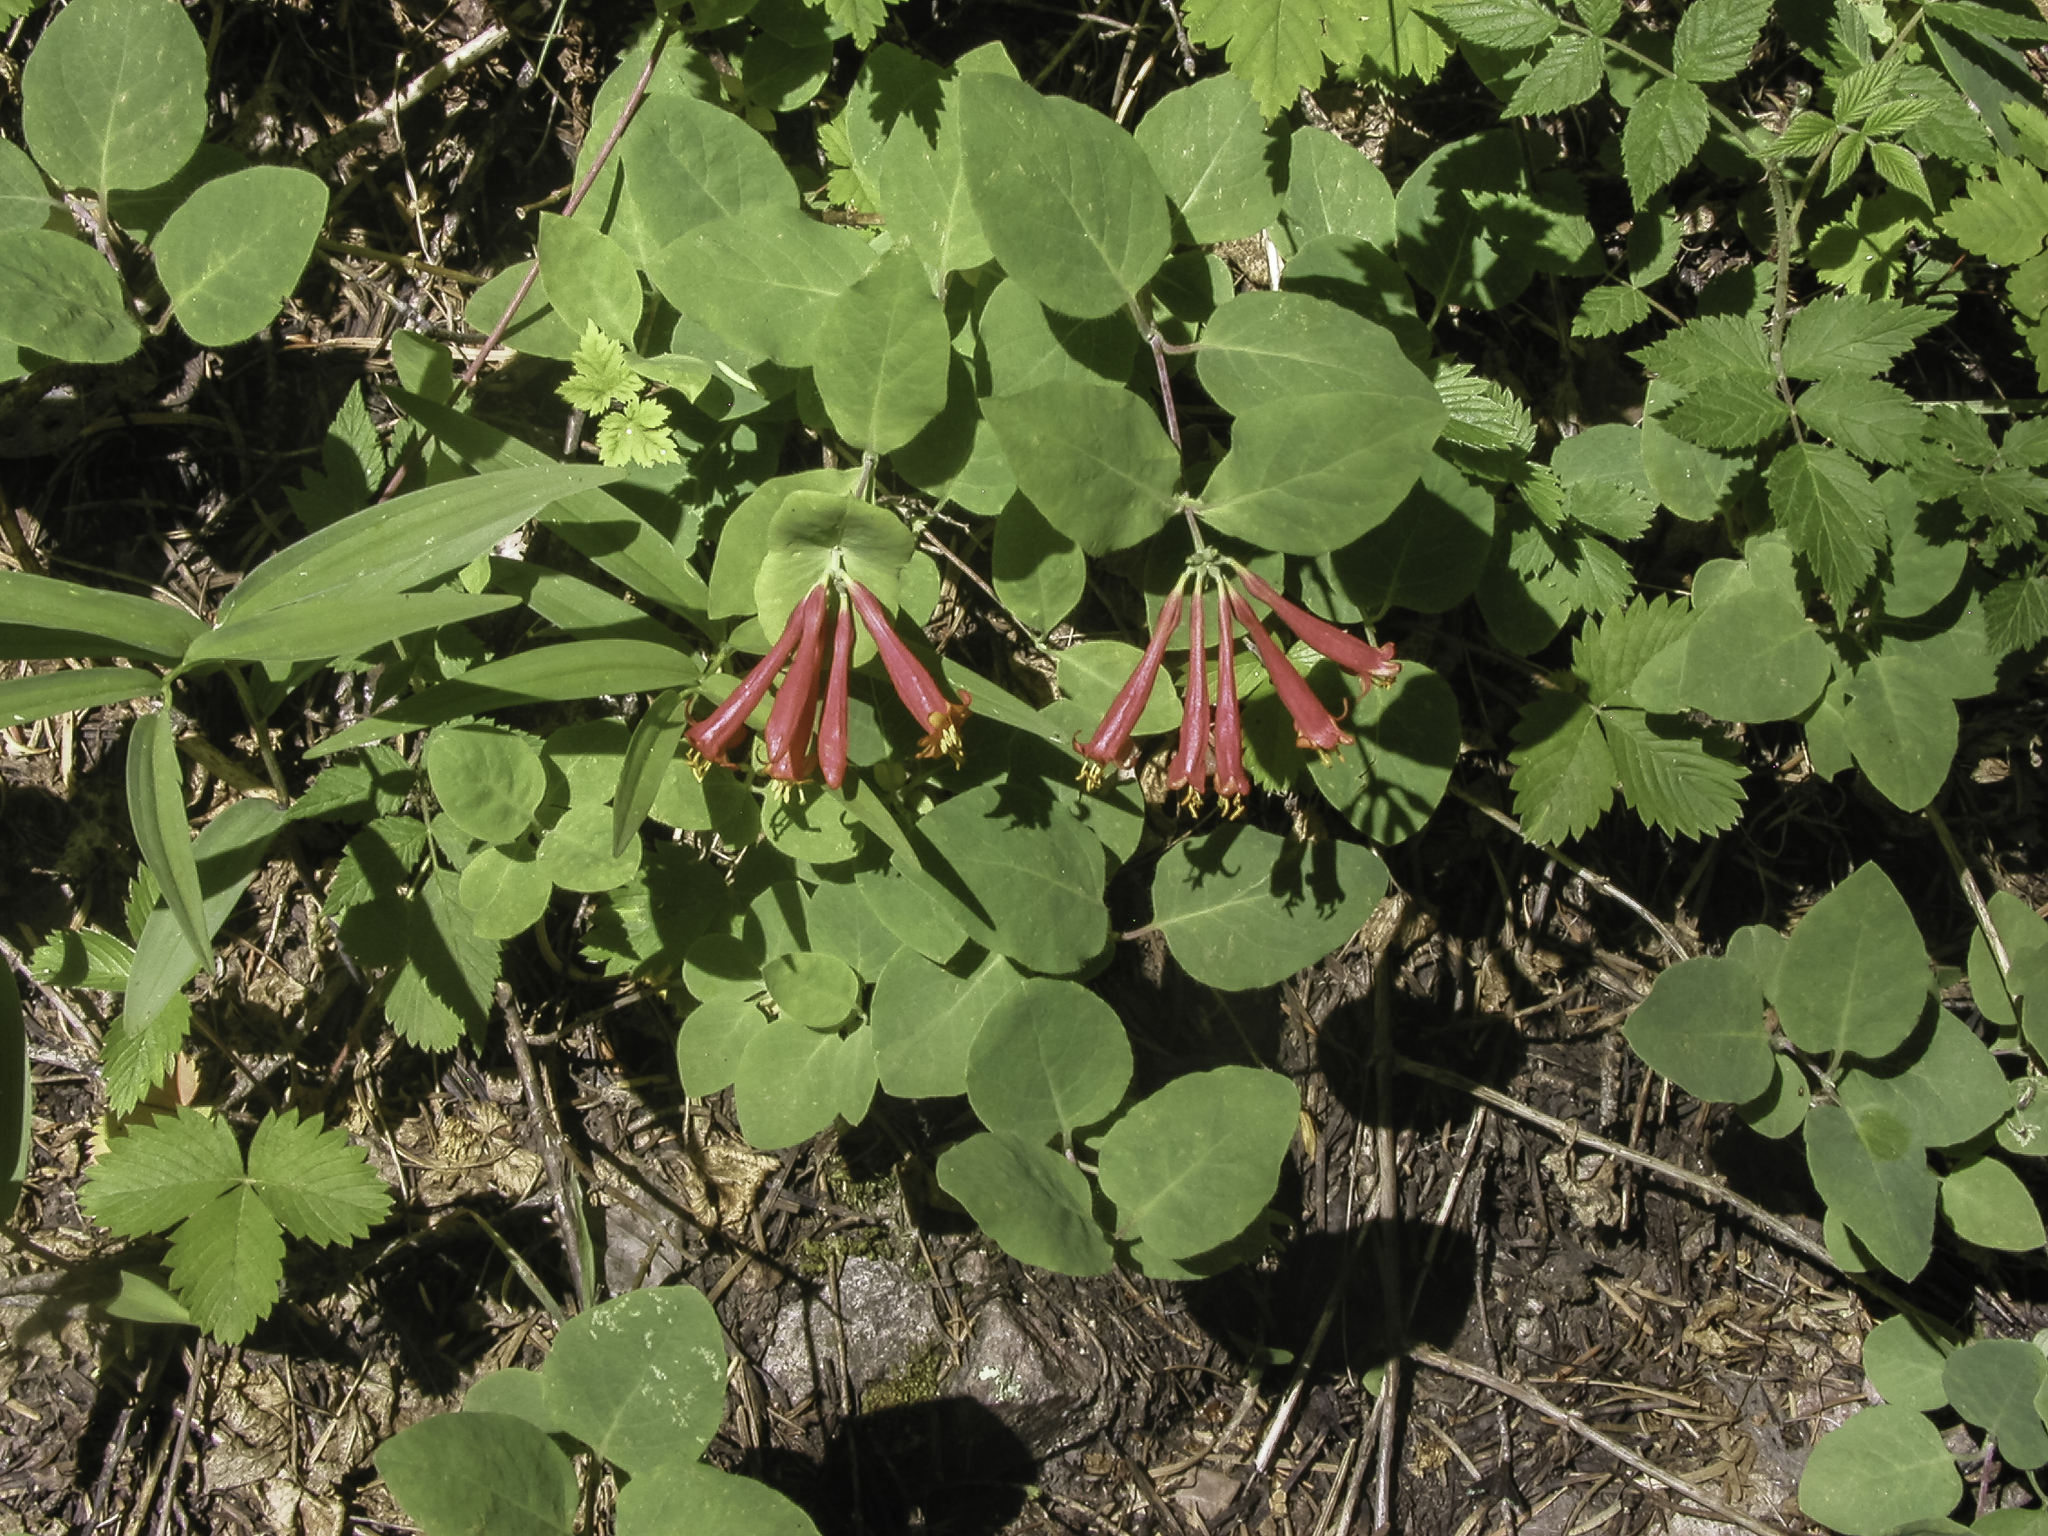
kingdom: Plantae
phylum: Tracheophyta
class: Magnoliopsida
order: Dipsacales
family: Caprifoliaceae
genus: Lonicera
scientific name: Lonicera arizonica
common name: Arizona honeysuckle
